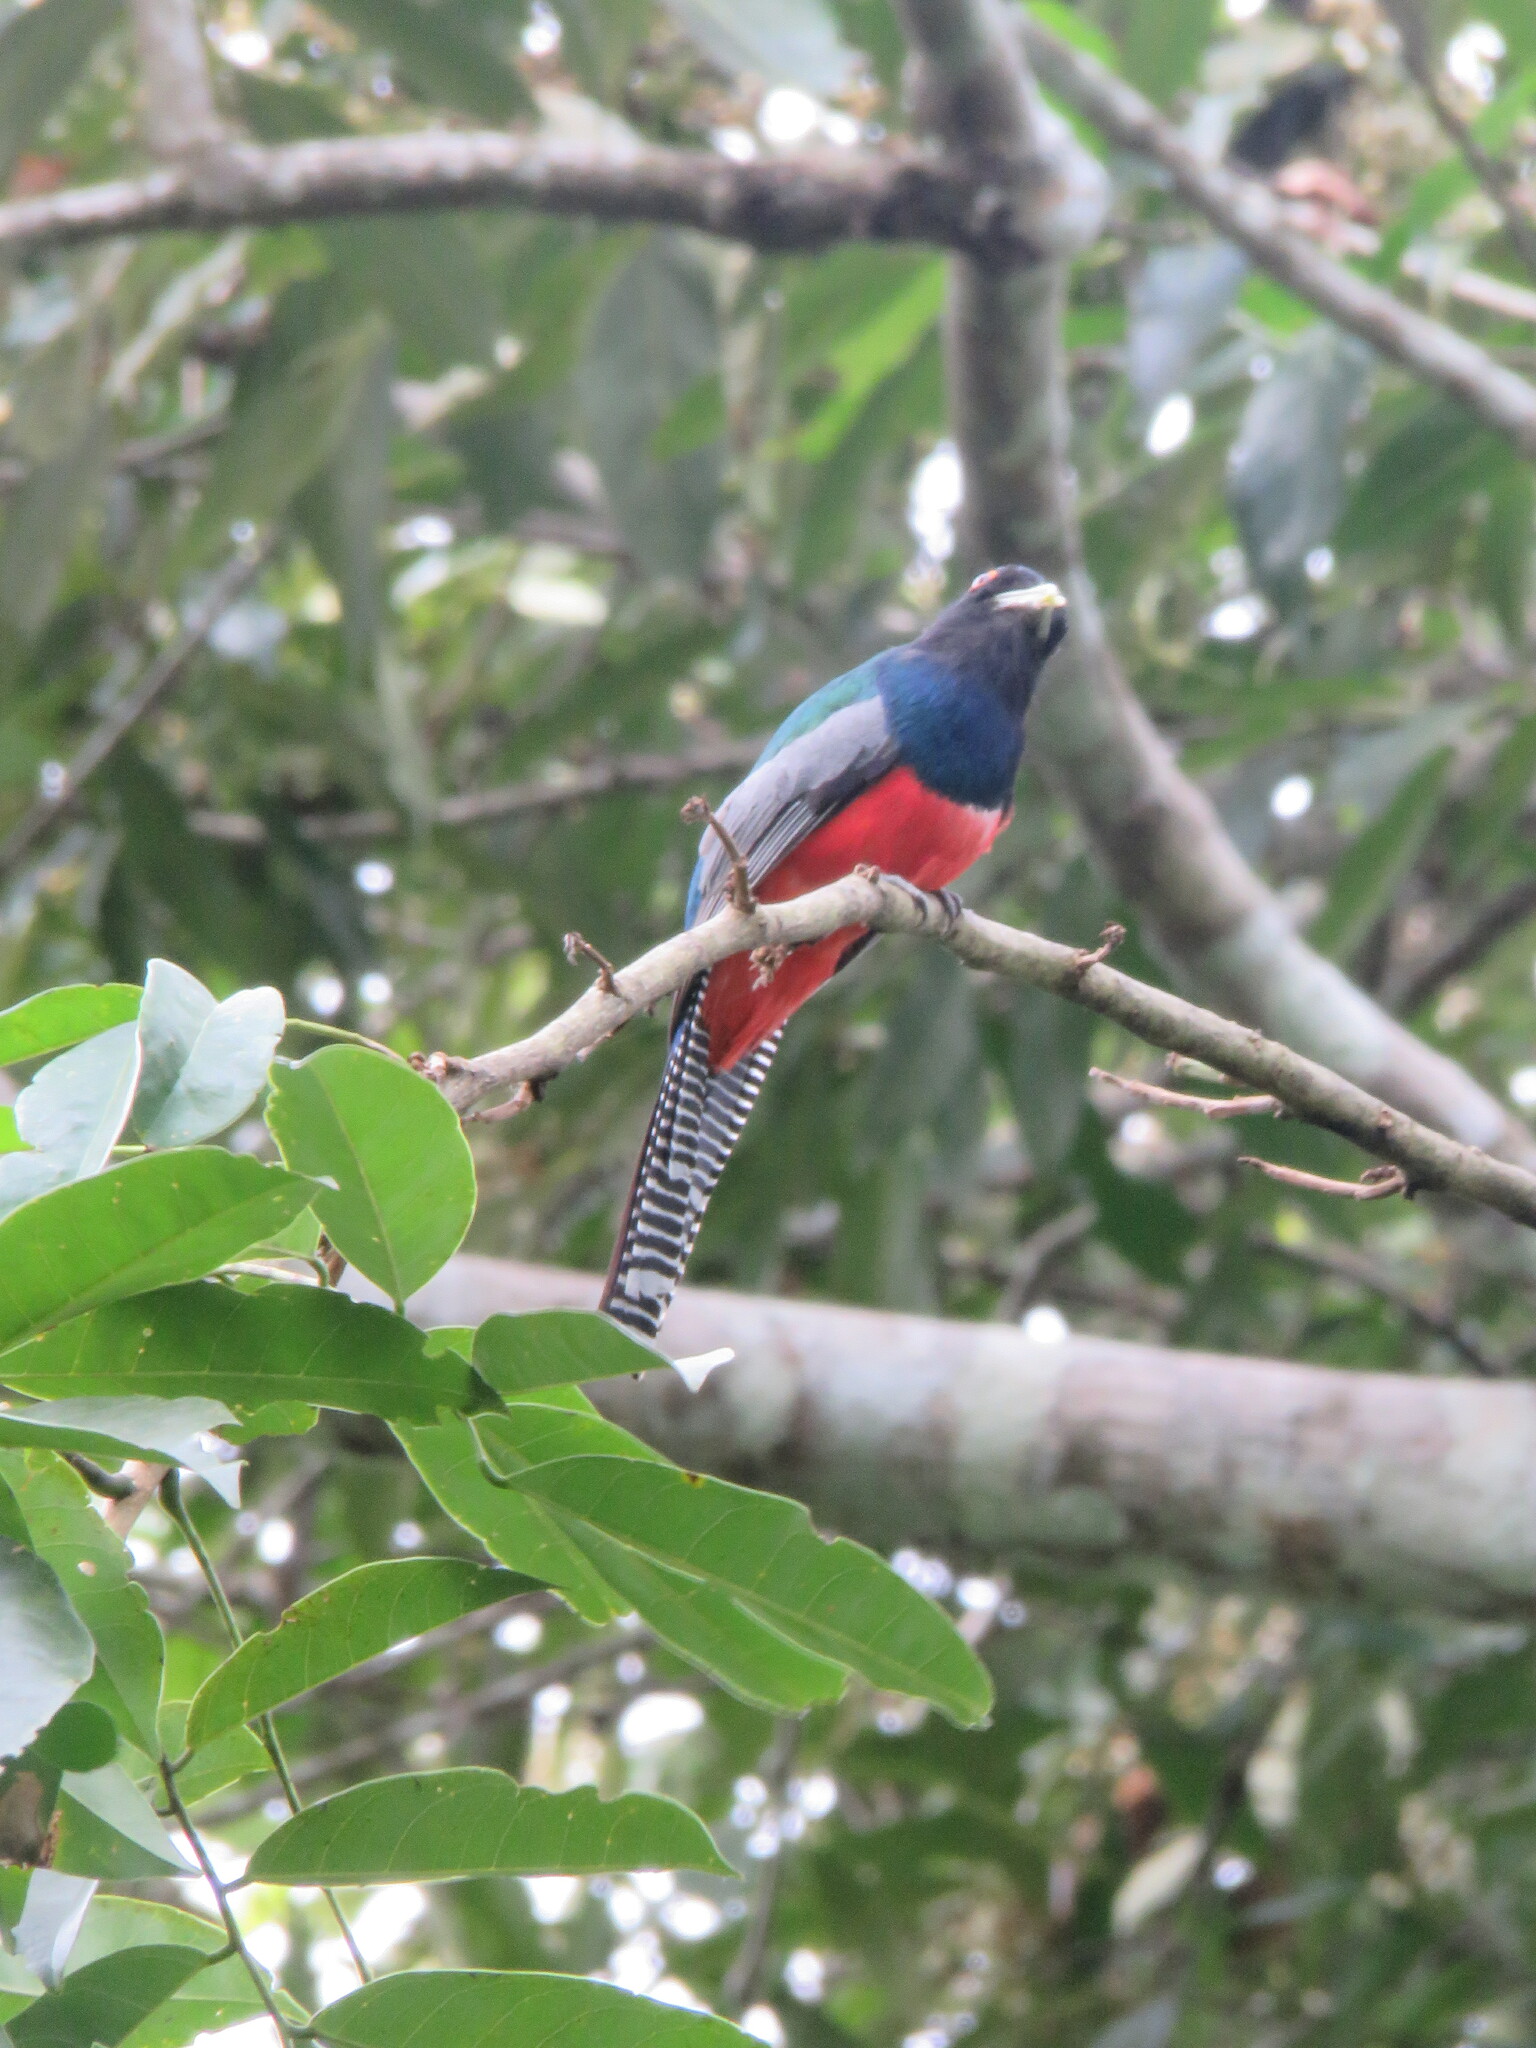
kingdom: Animalia
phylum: Chordata
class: Aves
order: Trogoniformes
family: Trogonidae
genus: Trogon
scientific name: Trogon curucui
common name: Blue-crowned trogon
